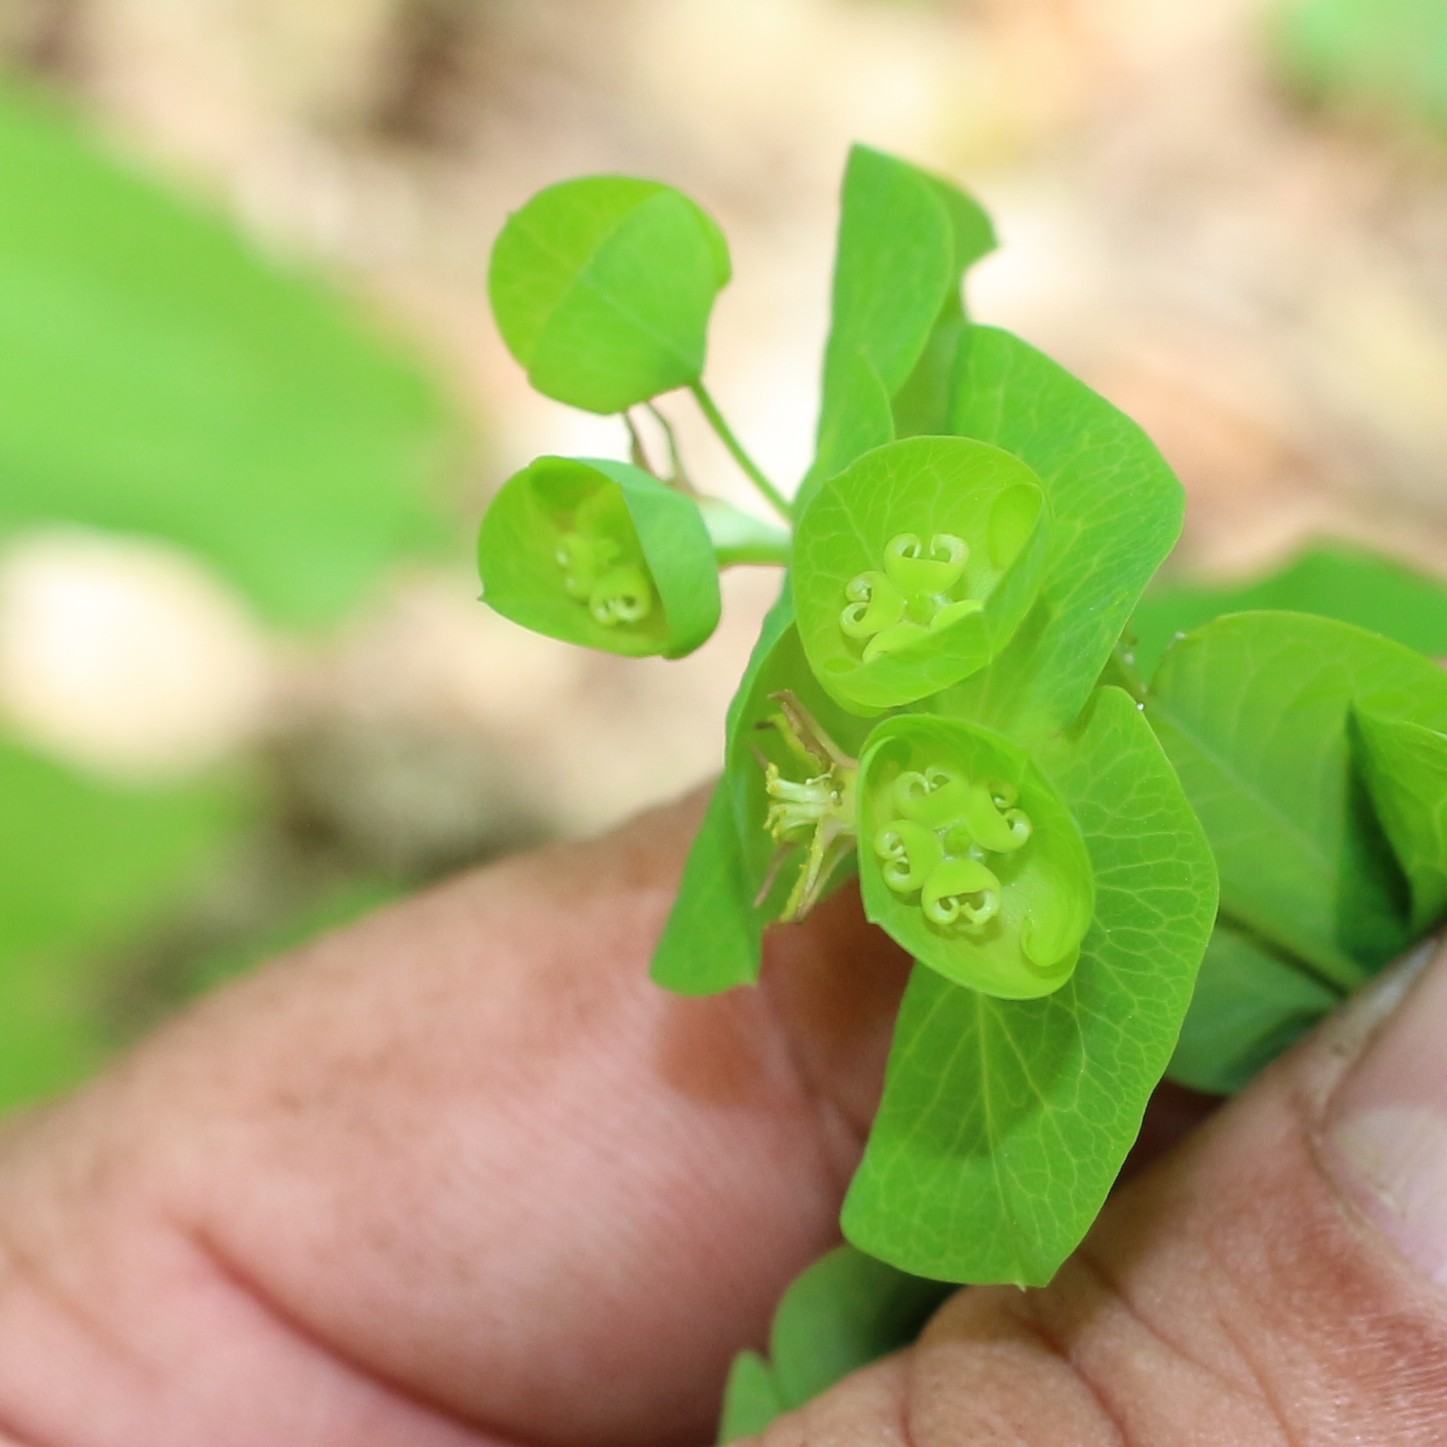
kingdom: Plantae
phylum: Tracheophyta
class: Magnoliopsida
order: Malpighiales
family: Euphorbiaceae
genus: Euphorbia
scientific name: Euphorbia oblongifolia
